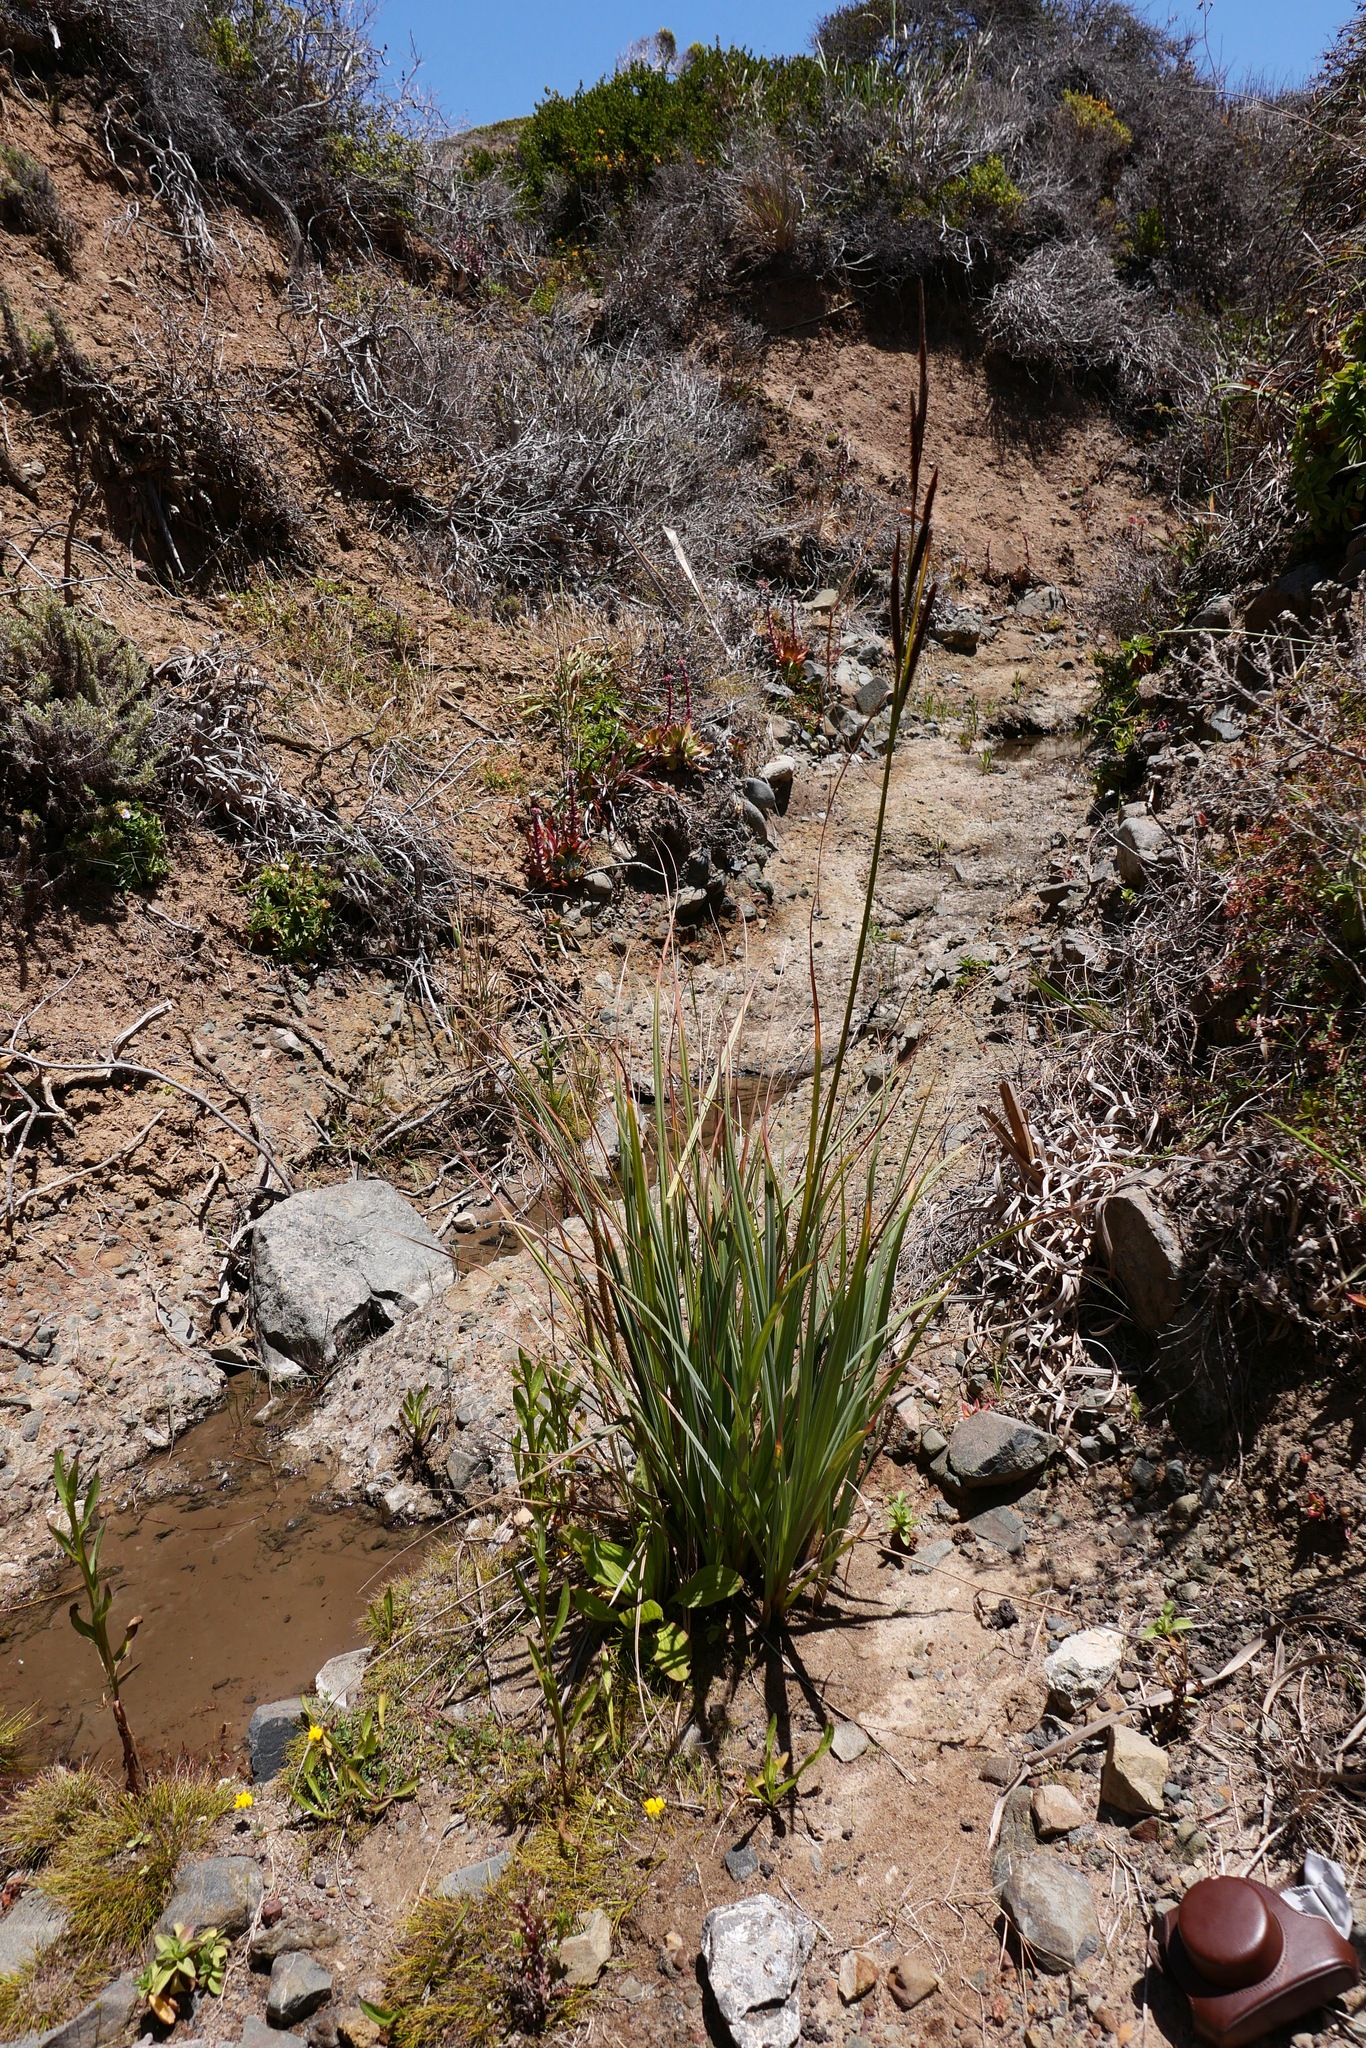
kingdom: Plantae
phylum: Tracheophyta
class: Liliopsida
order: Poales
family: Cyperaceae
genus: Carex
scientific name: Carex barbarae
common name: Santa barbara sedge
